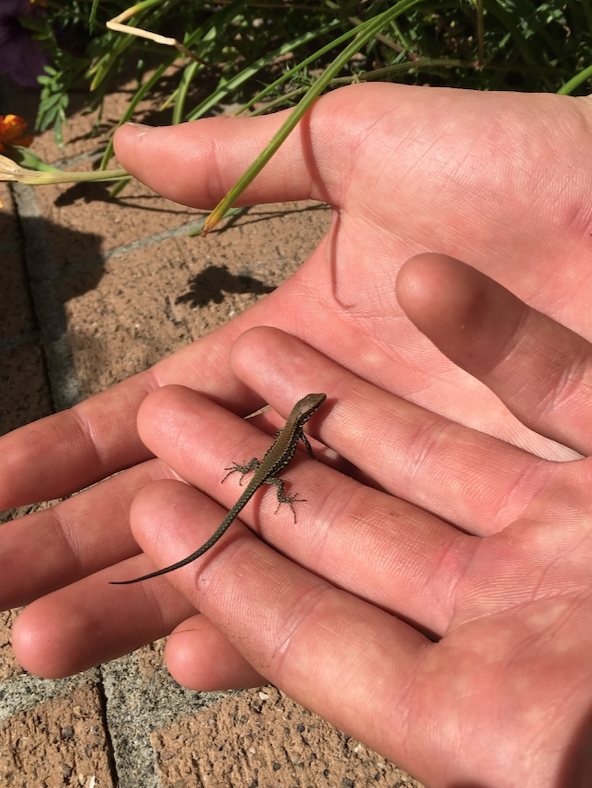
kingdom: Animalia
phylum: Chordata
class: Squamata
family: Lacertidae
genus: Podarcis
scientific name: Podarcis muralis
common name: Common wall lizard
